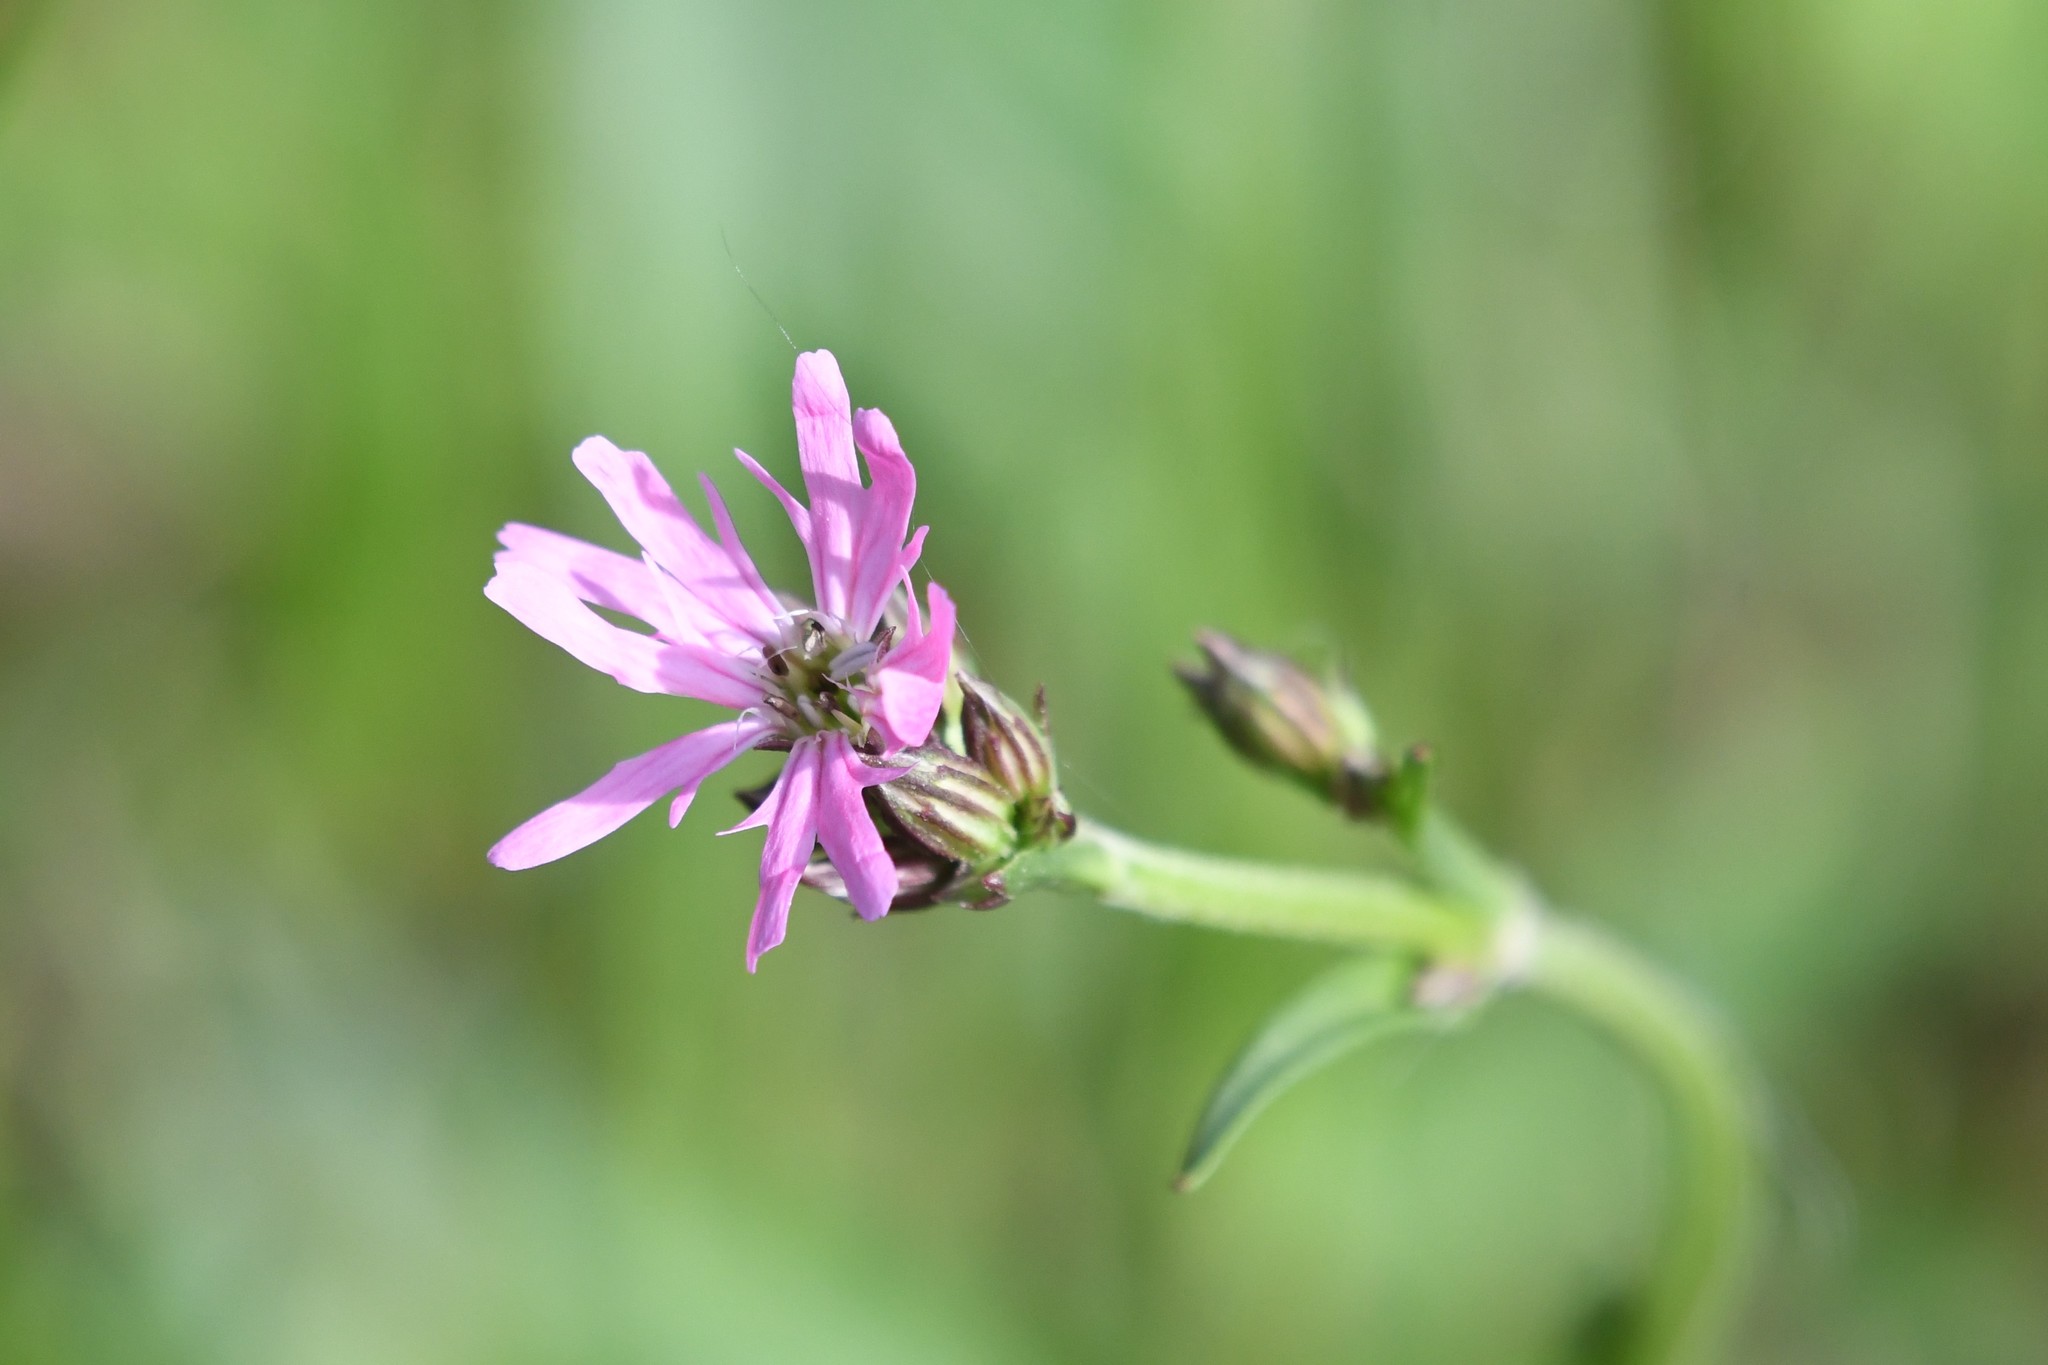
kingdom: Plantae
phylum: Tracheophyta
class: Magnoliopsida
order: Caryophyllales
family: Caryophyllaceae
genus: Silene
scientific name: Silene flos-cuculi
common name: Ragged-robin
